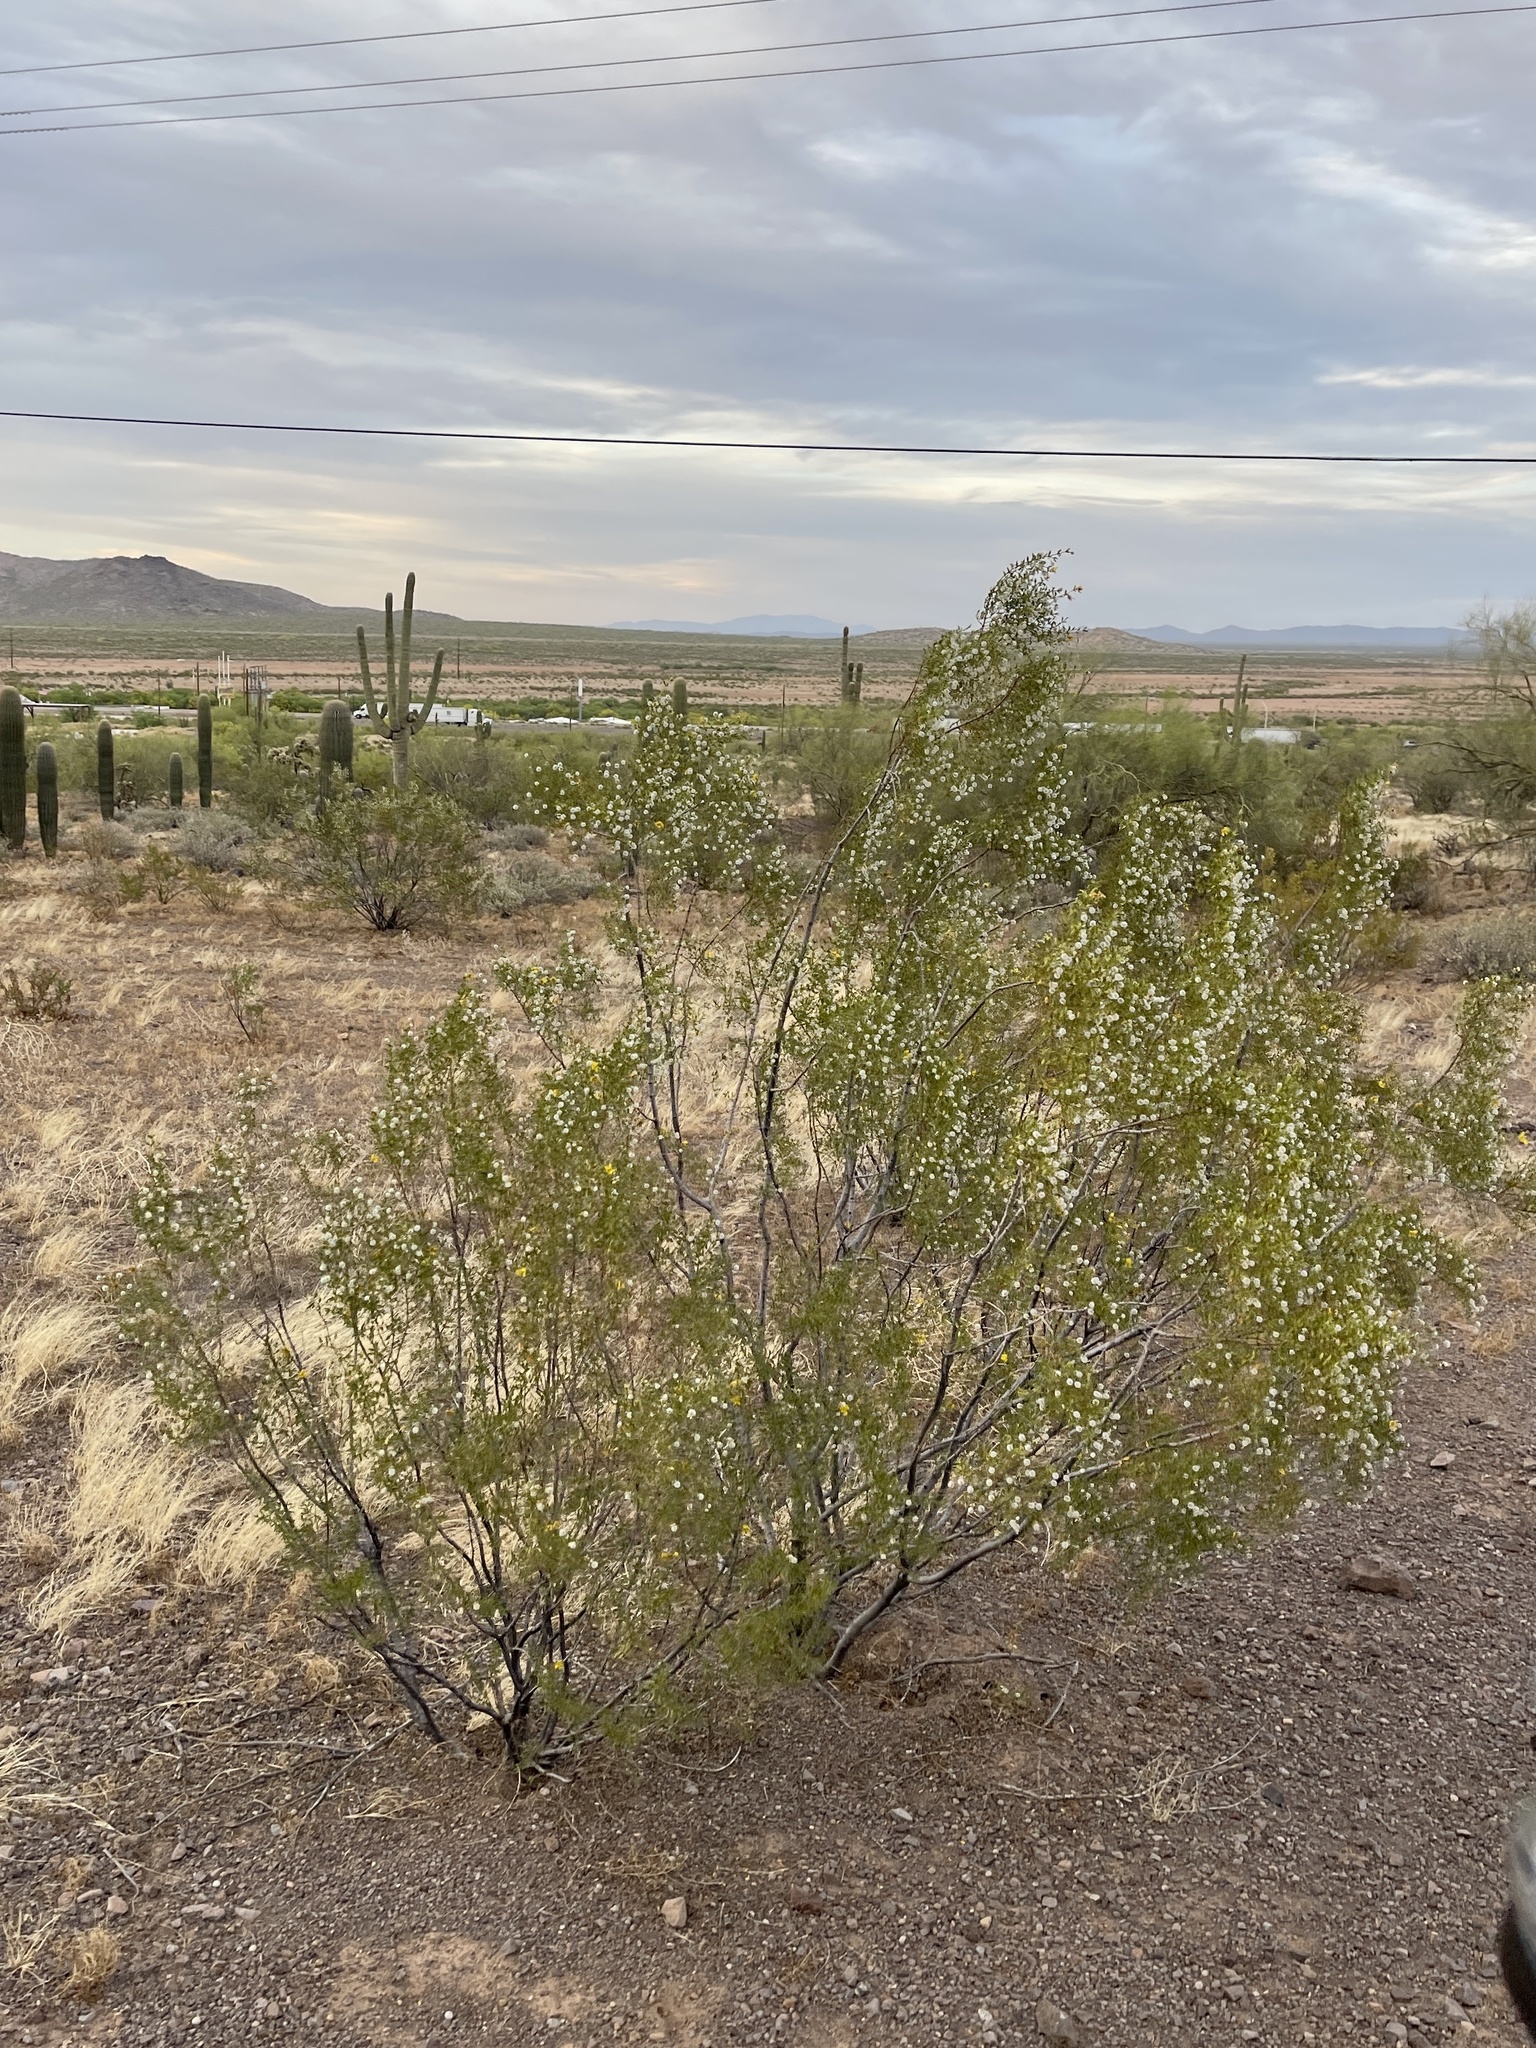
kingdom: Plantae
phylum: Tracheophyta
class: Magnoliopsida
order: Zygophyllales
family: Zygophyllaceae
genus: Larrea
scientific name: Larrea tridentata
